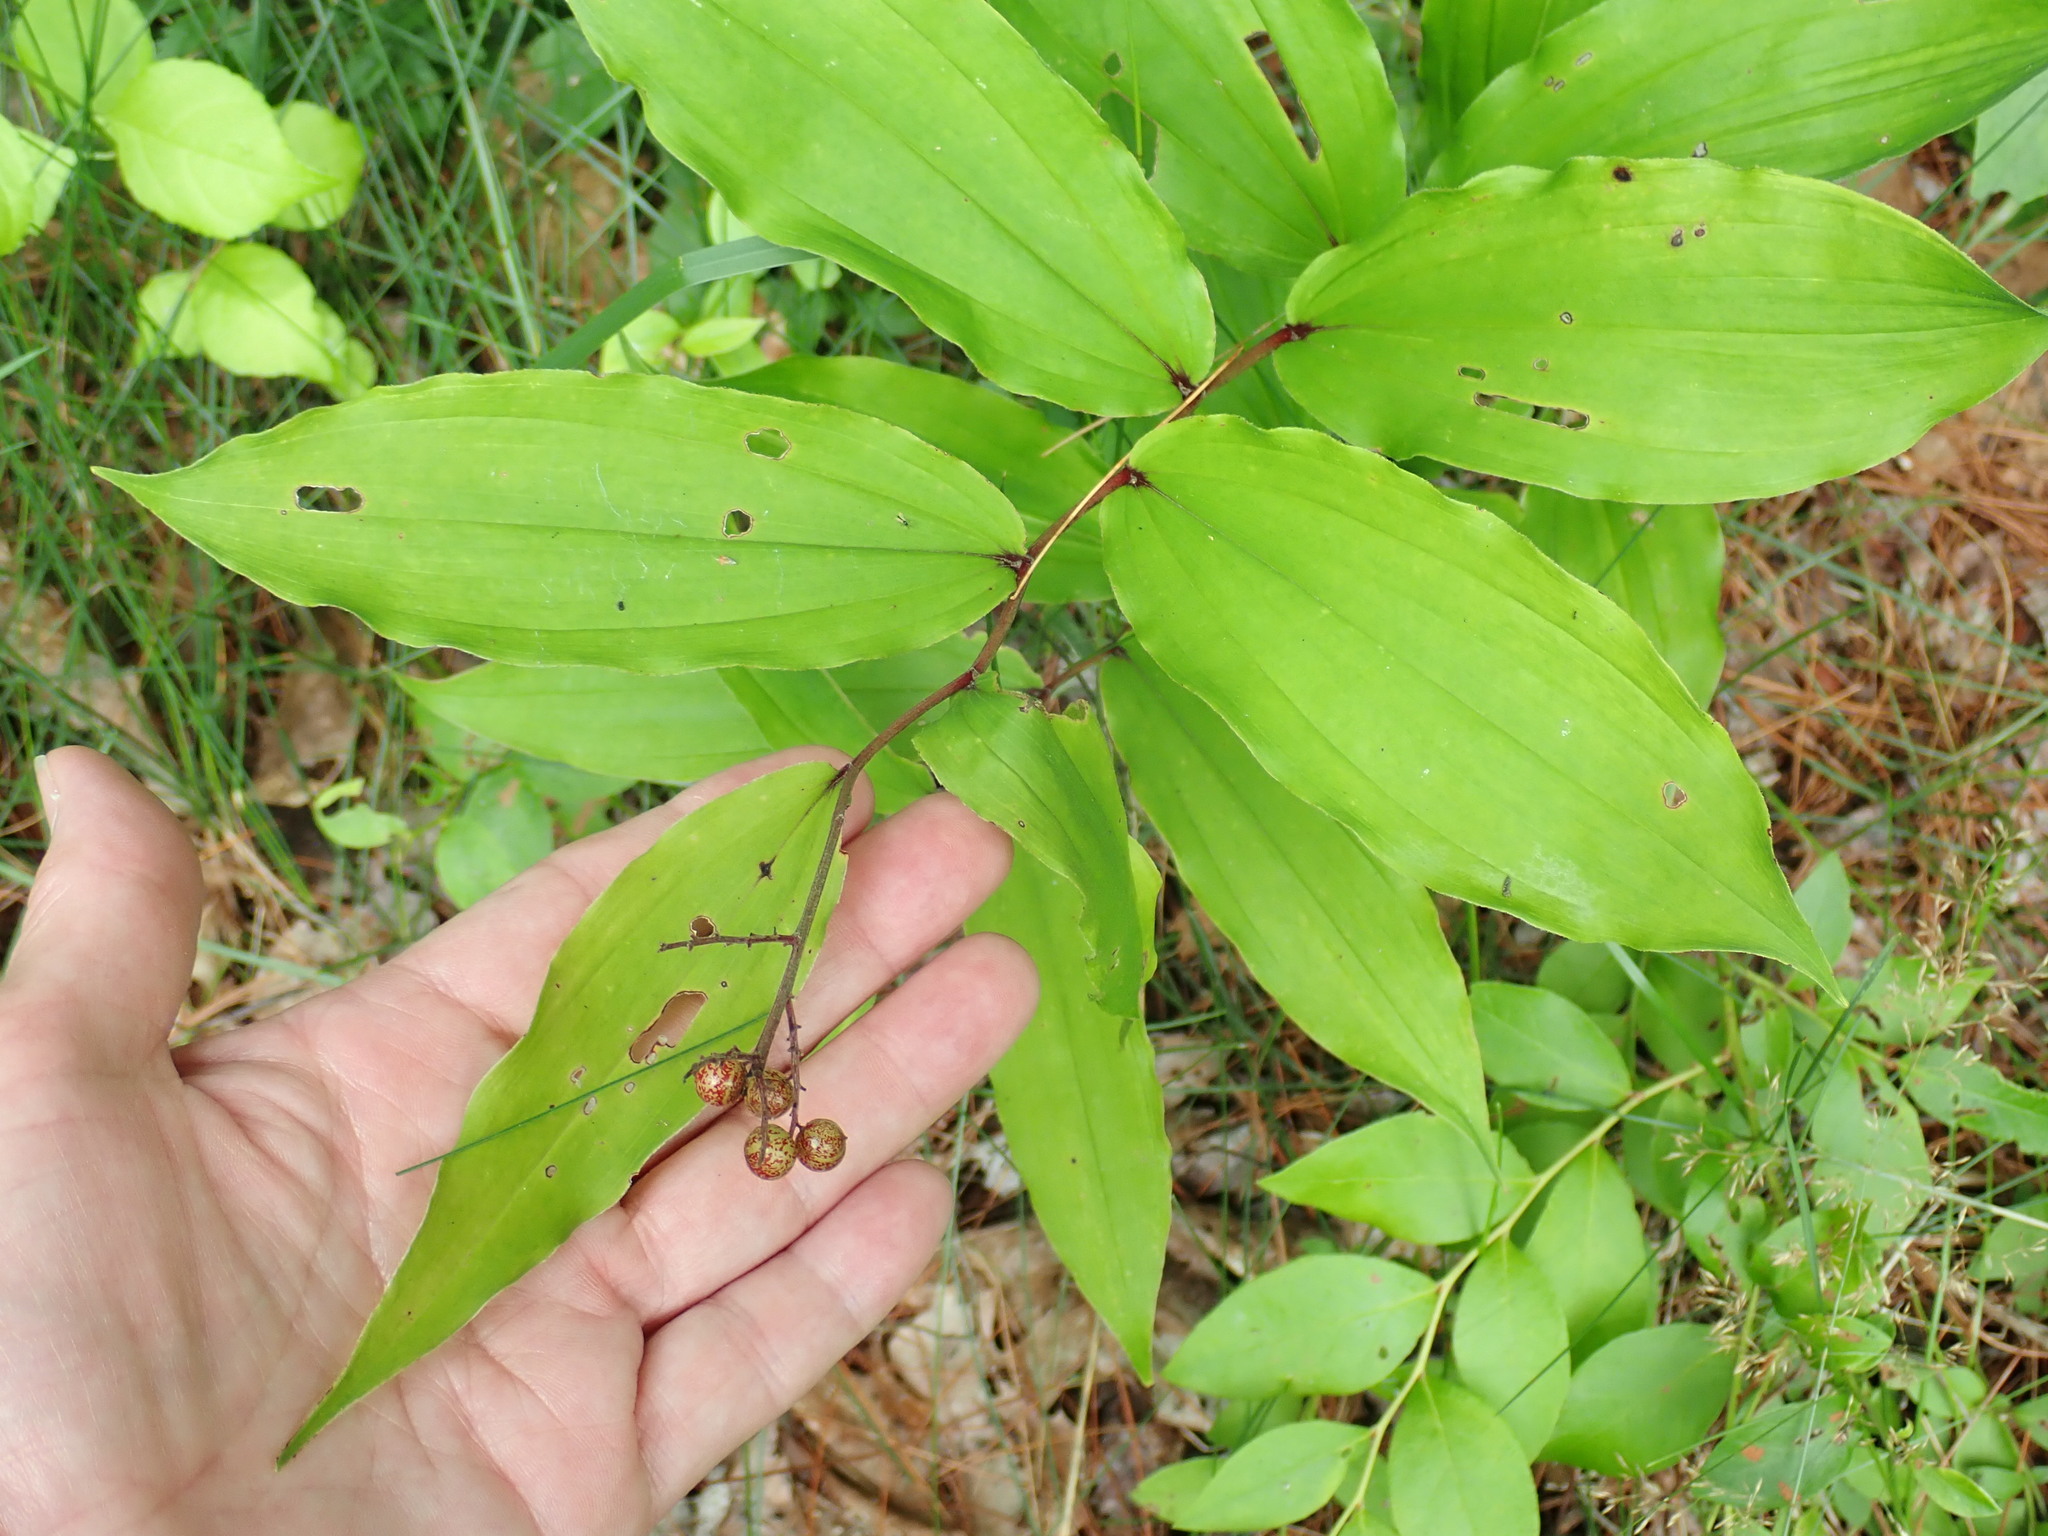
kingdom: Plantae
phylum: Tracheophyta
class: Liliopsida
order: Asparagales
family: Asparagaceae
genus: Maianthemum
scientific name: Maianthemum racemosum
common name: False spikenard
